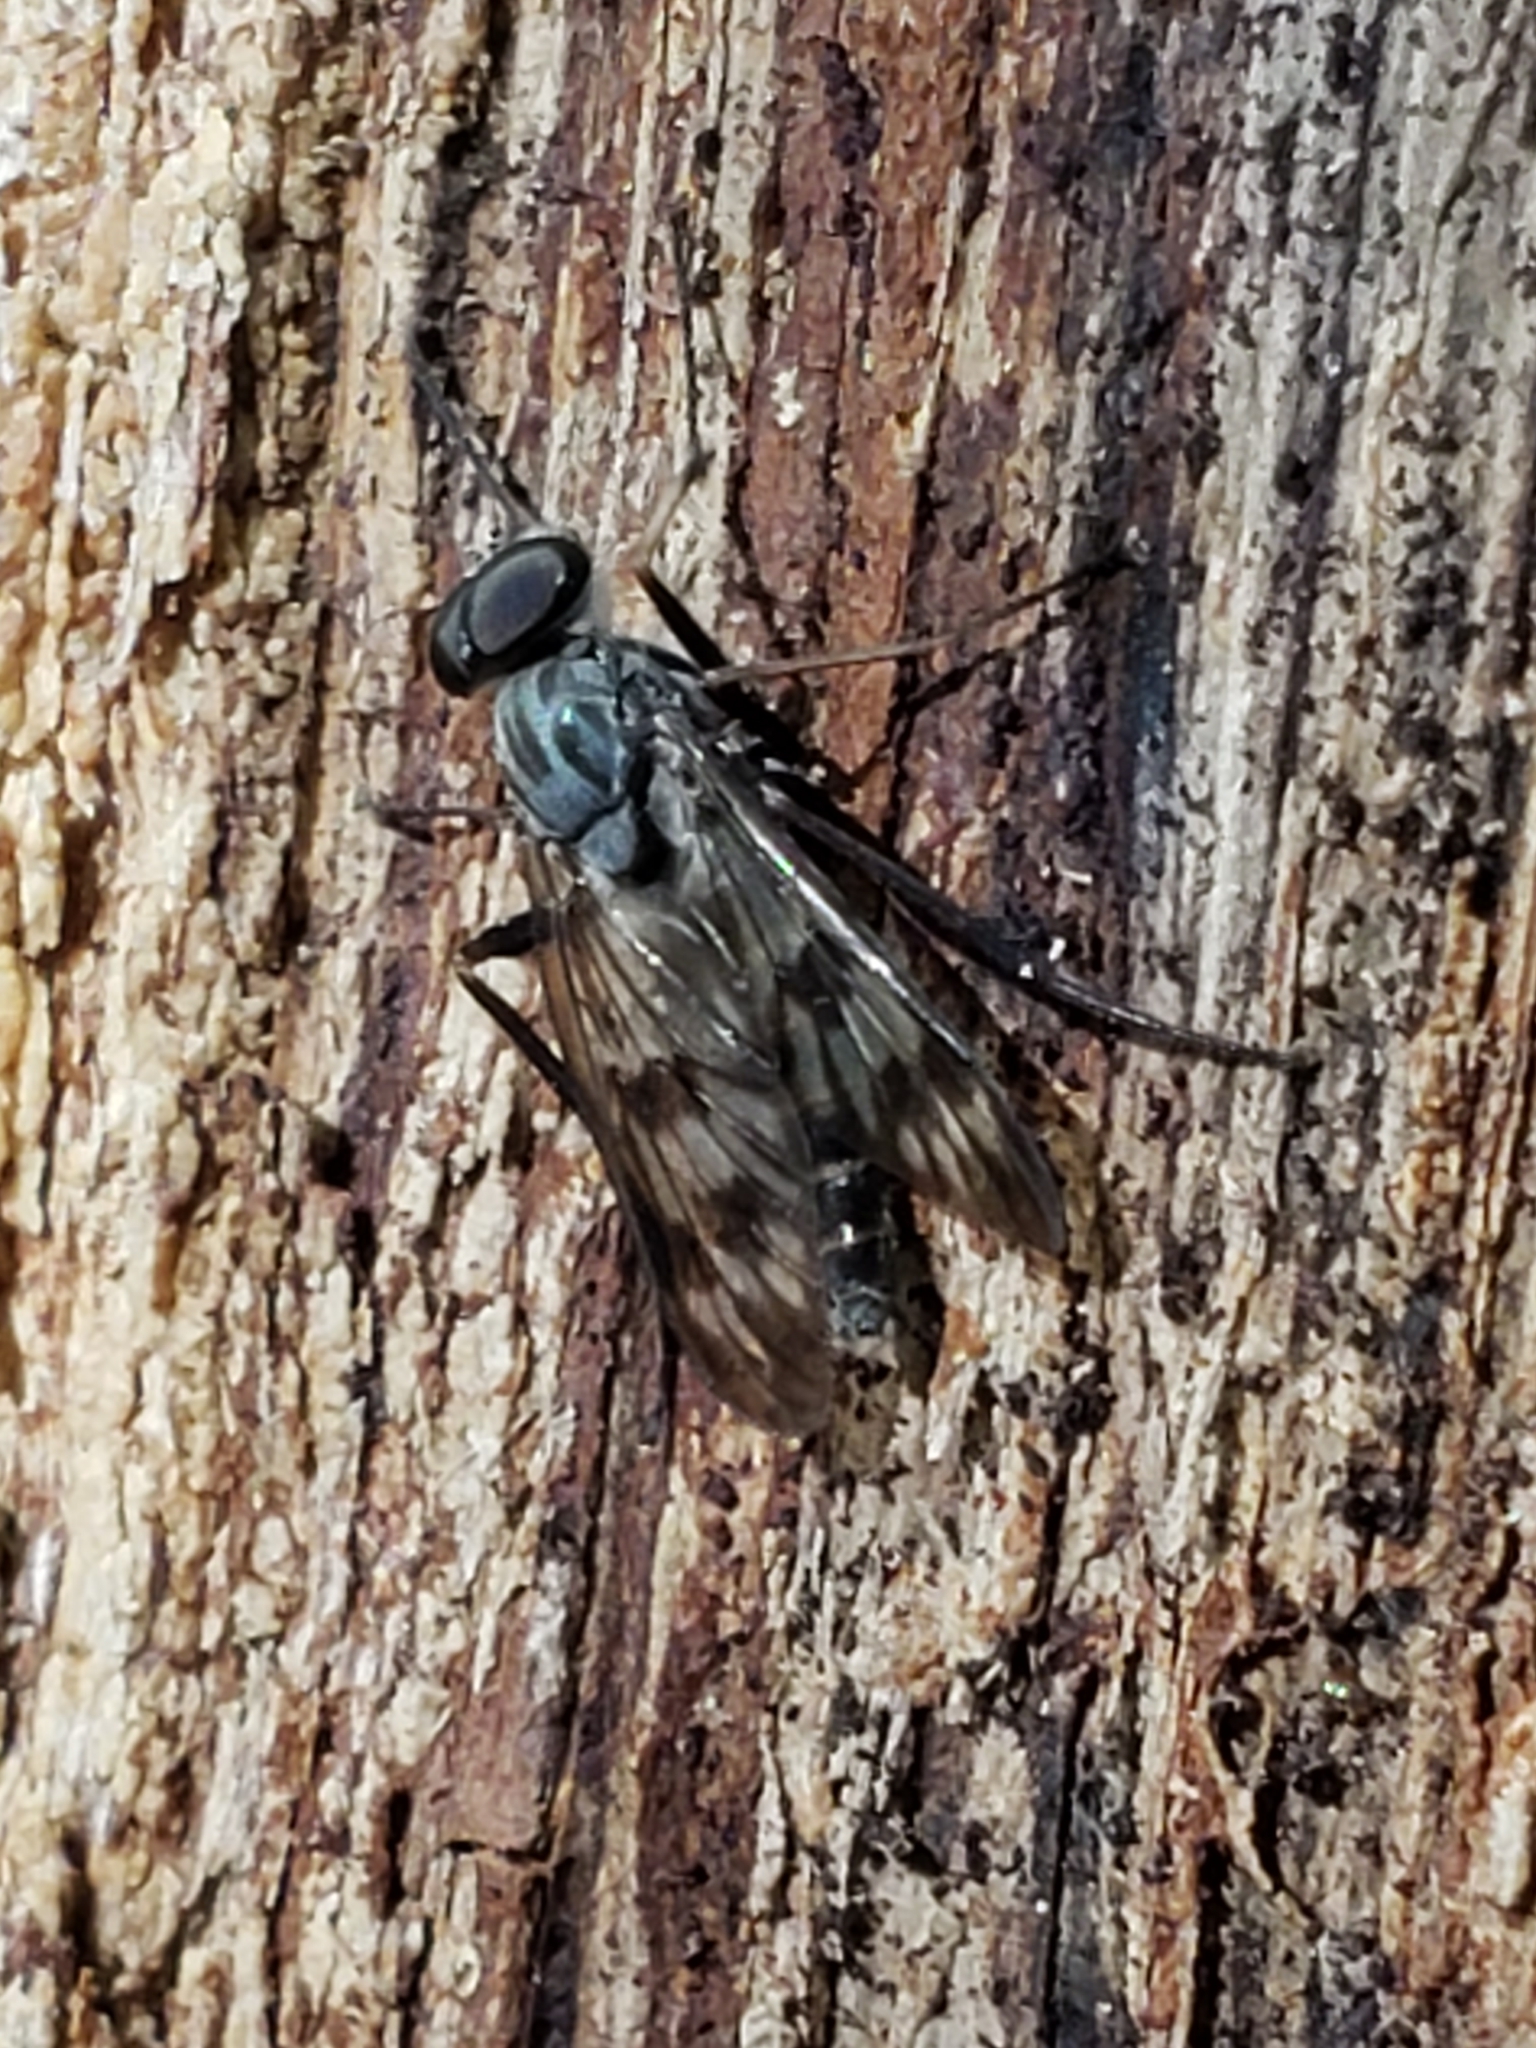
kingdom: Animalia
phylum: Arthropoda
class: Insecta
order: Diptera
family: Rhagionidae
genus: Rhagio
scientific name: Rhagio mystaceus
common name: Common snipe fly
